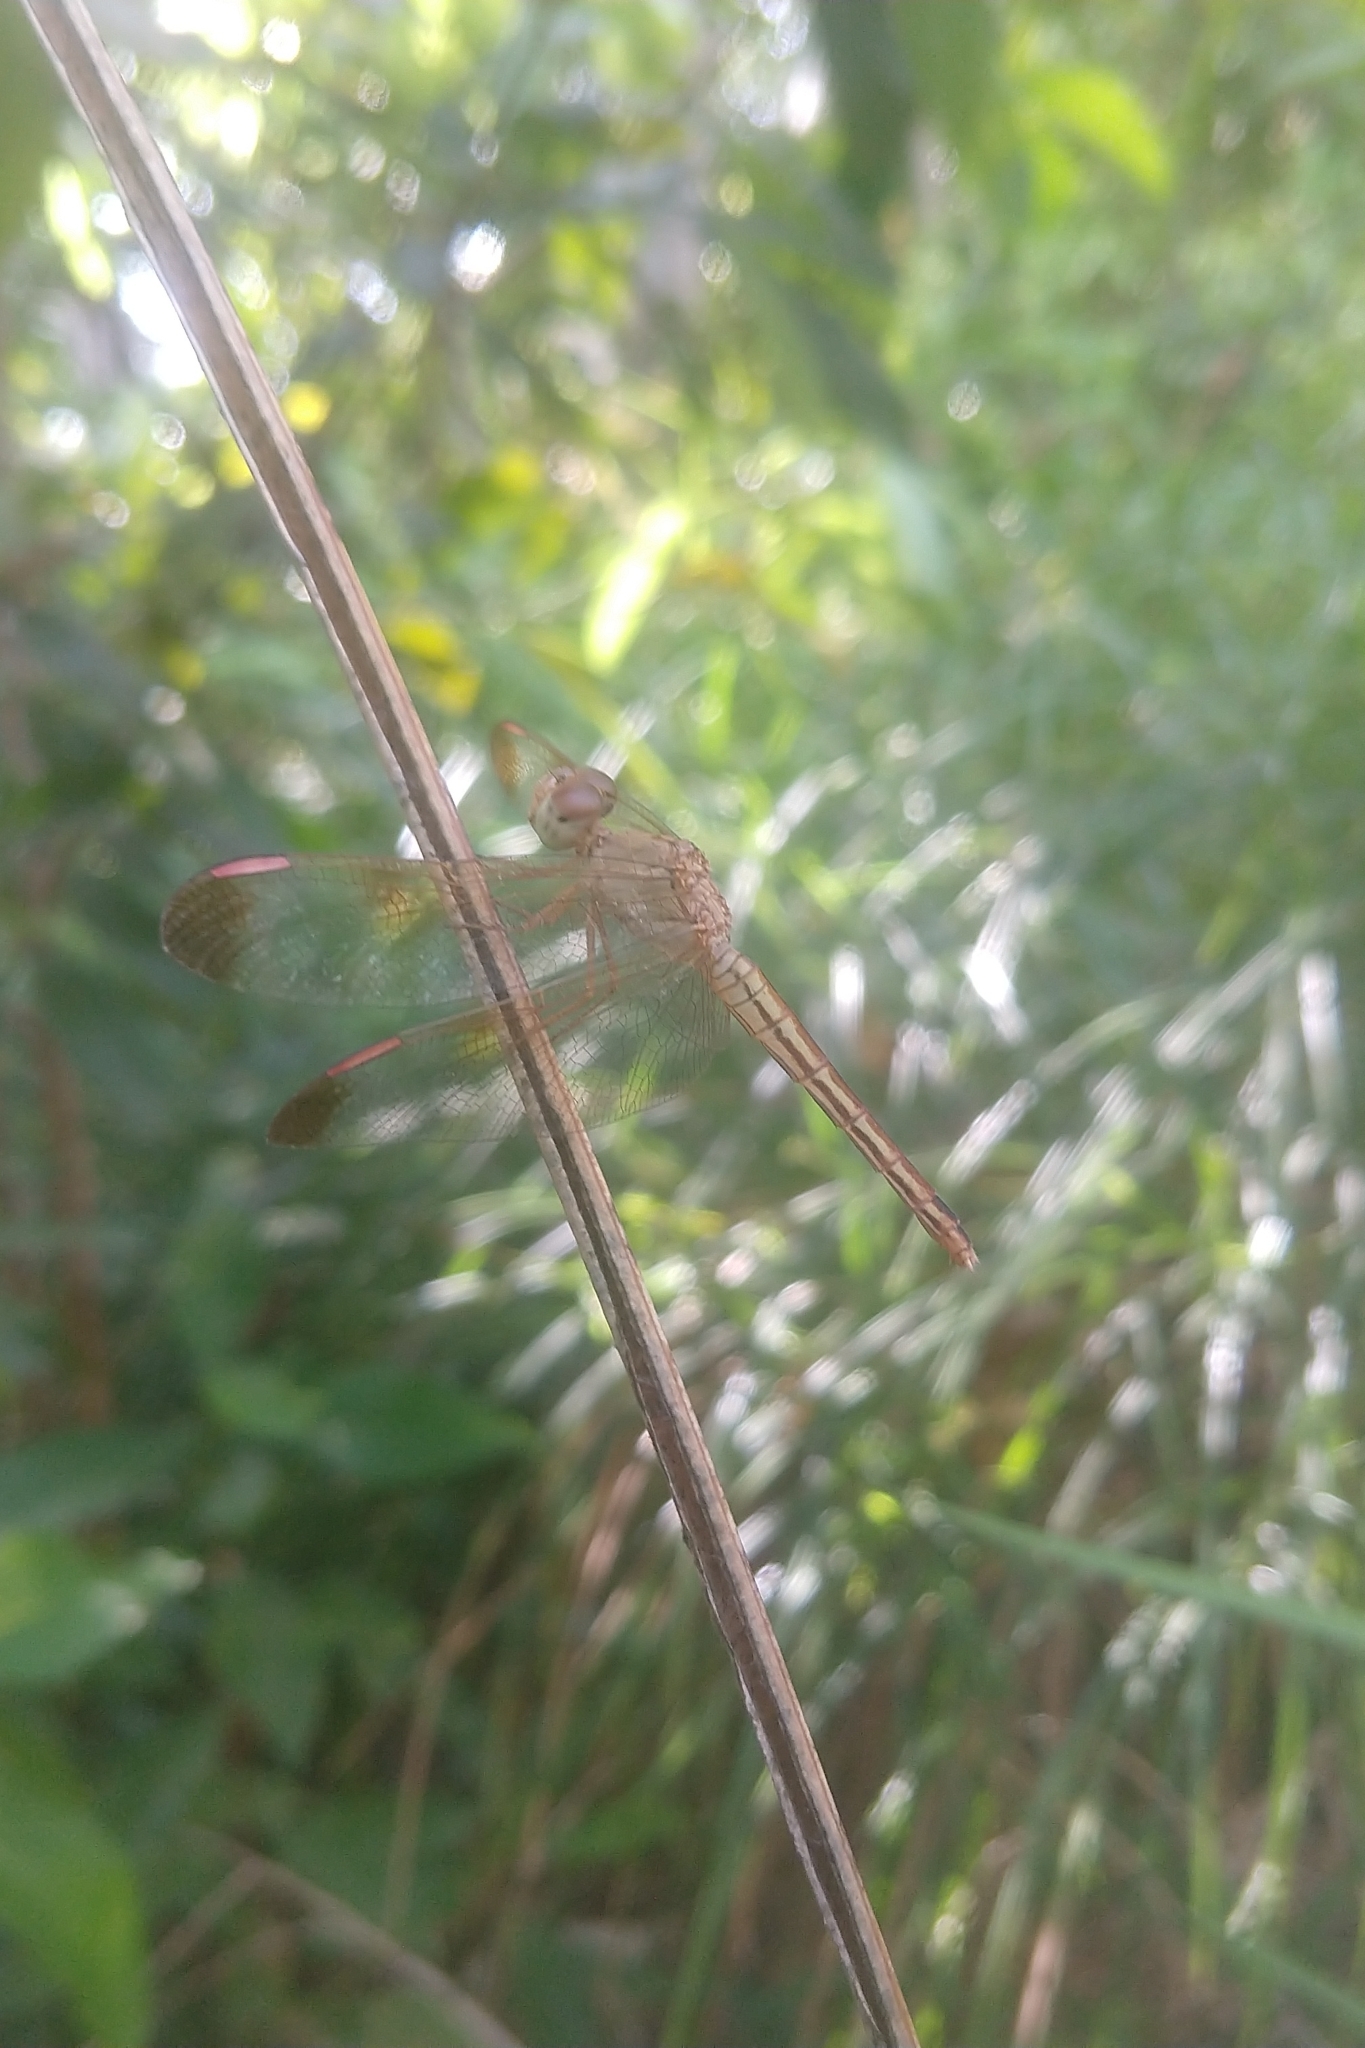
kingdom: Animalia
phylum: Arthropoda
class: Insecta
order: Odonata
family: Libellulidae
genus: Neurothemis
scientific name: Neurothemis stigmatizans
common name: Painted grasshawk
